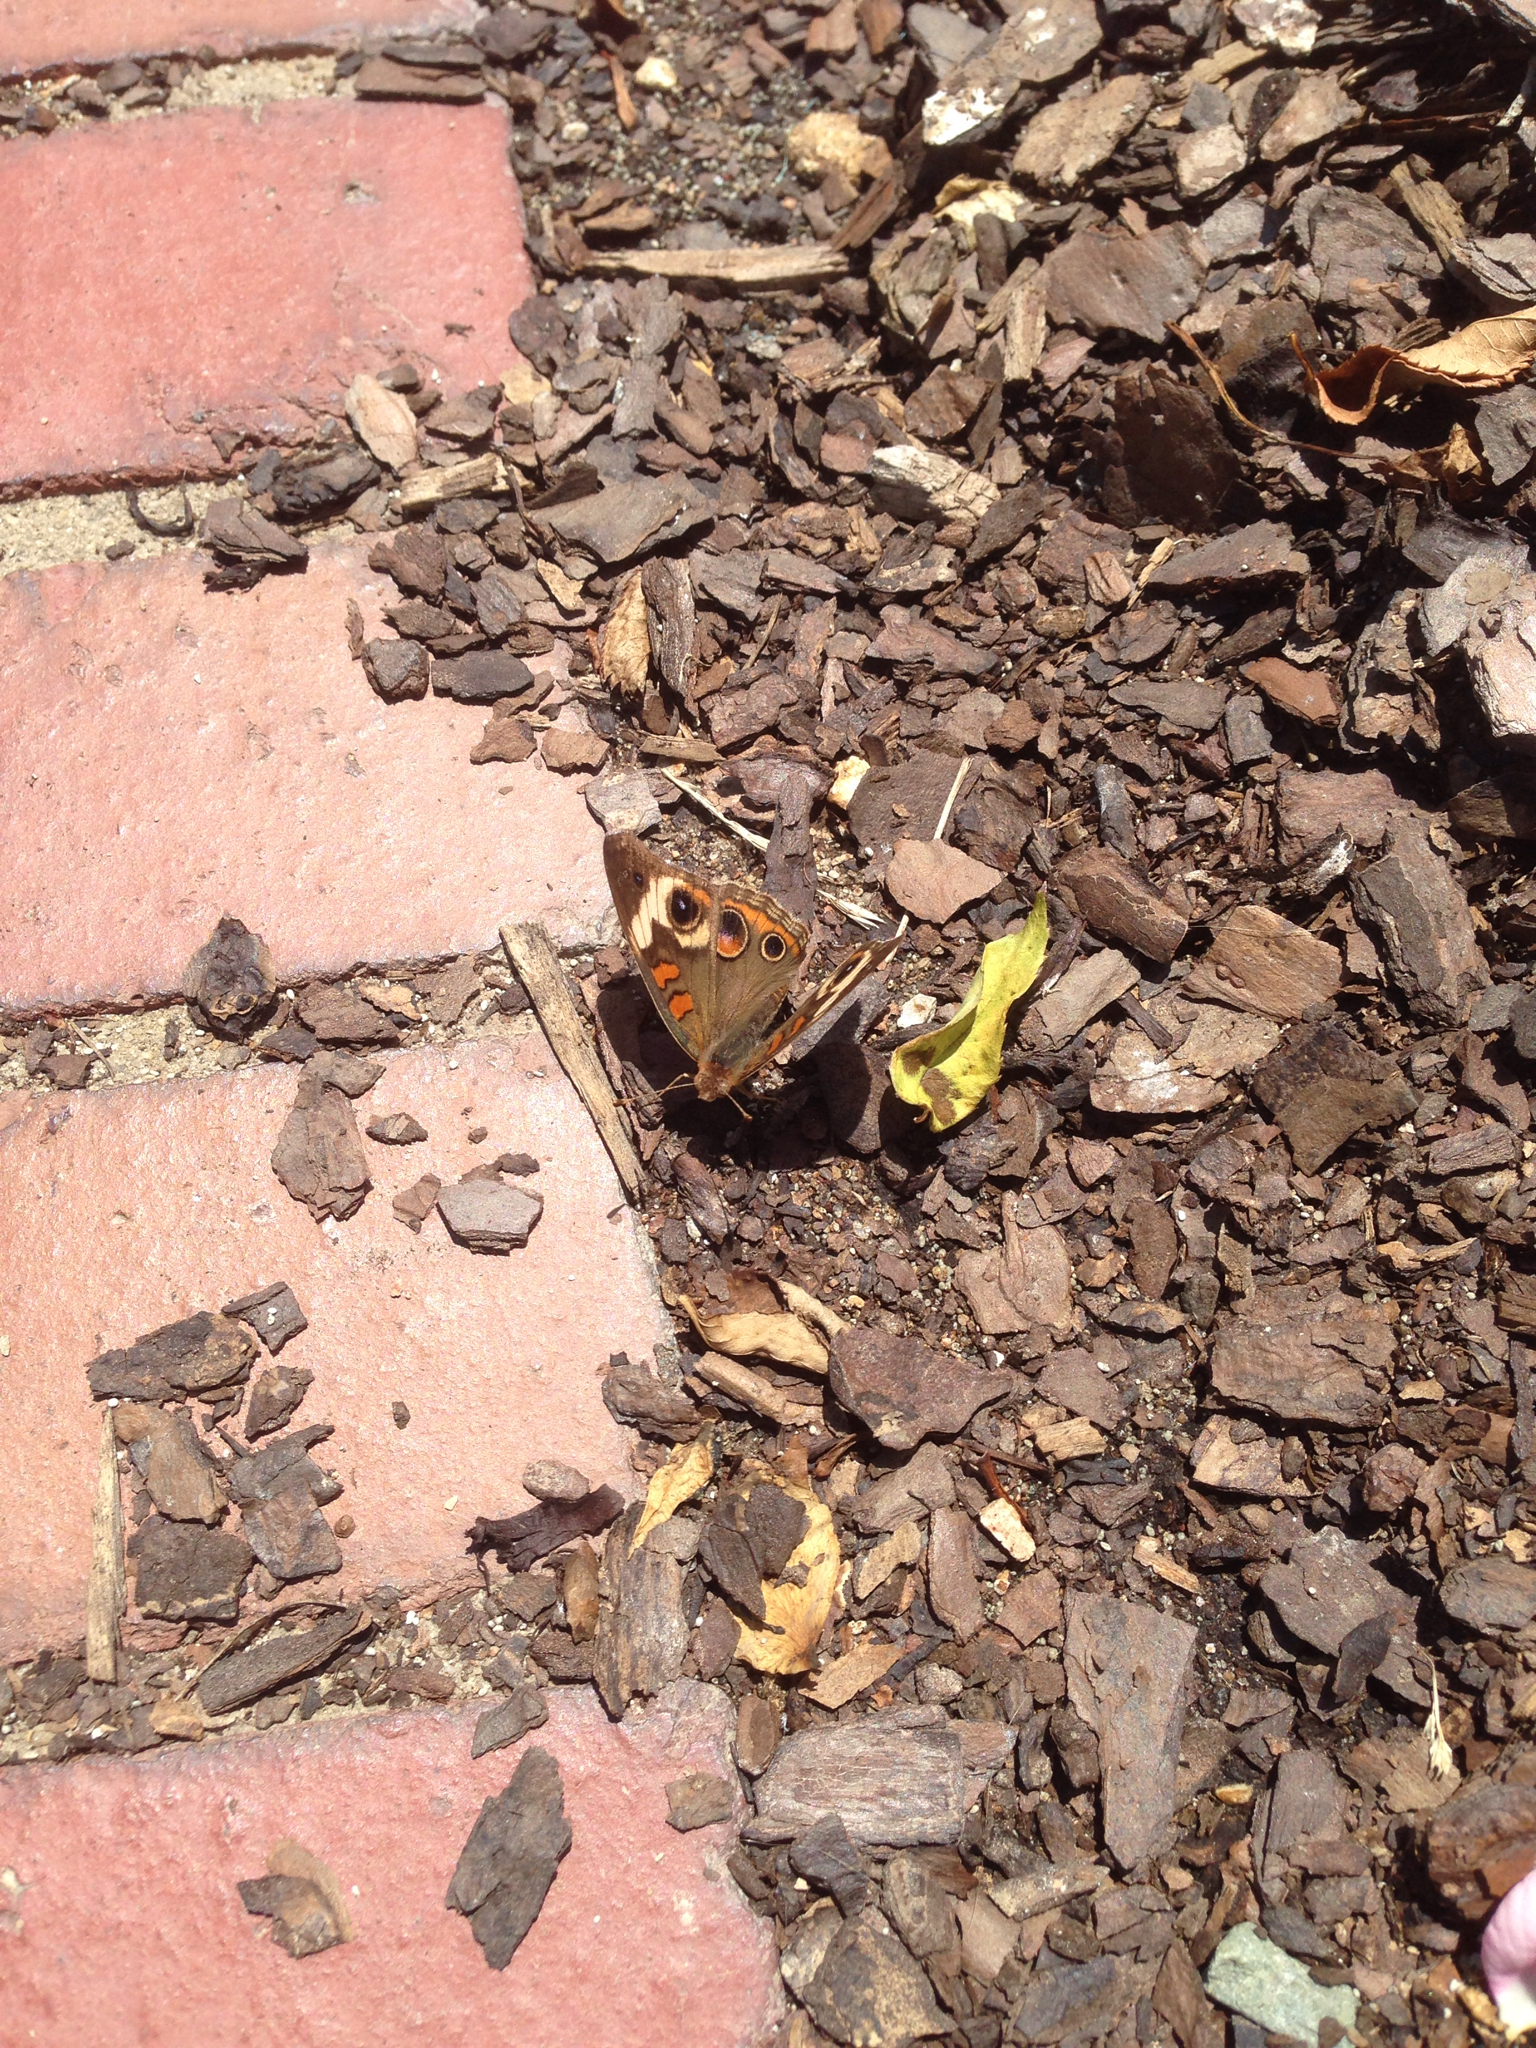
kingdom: Animalia
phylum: Arthropoda
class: Insecta
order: Lepidoptera
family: Nymphalidae
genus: Junonia
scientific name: Junonia coenia
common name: Common buckeye
